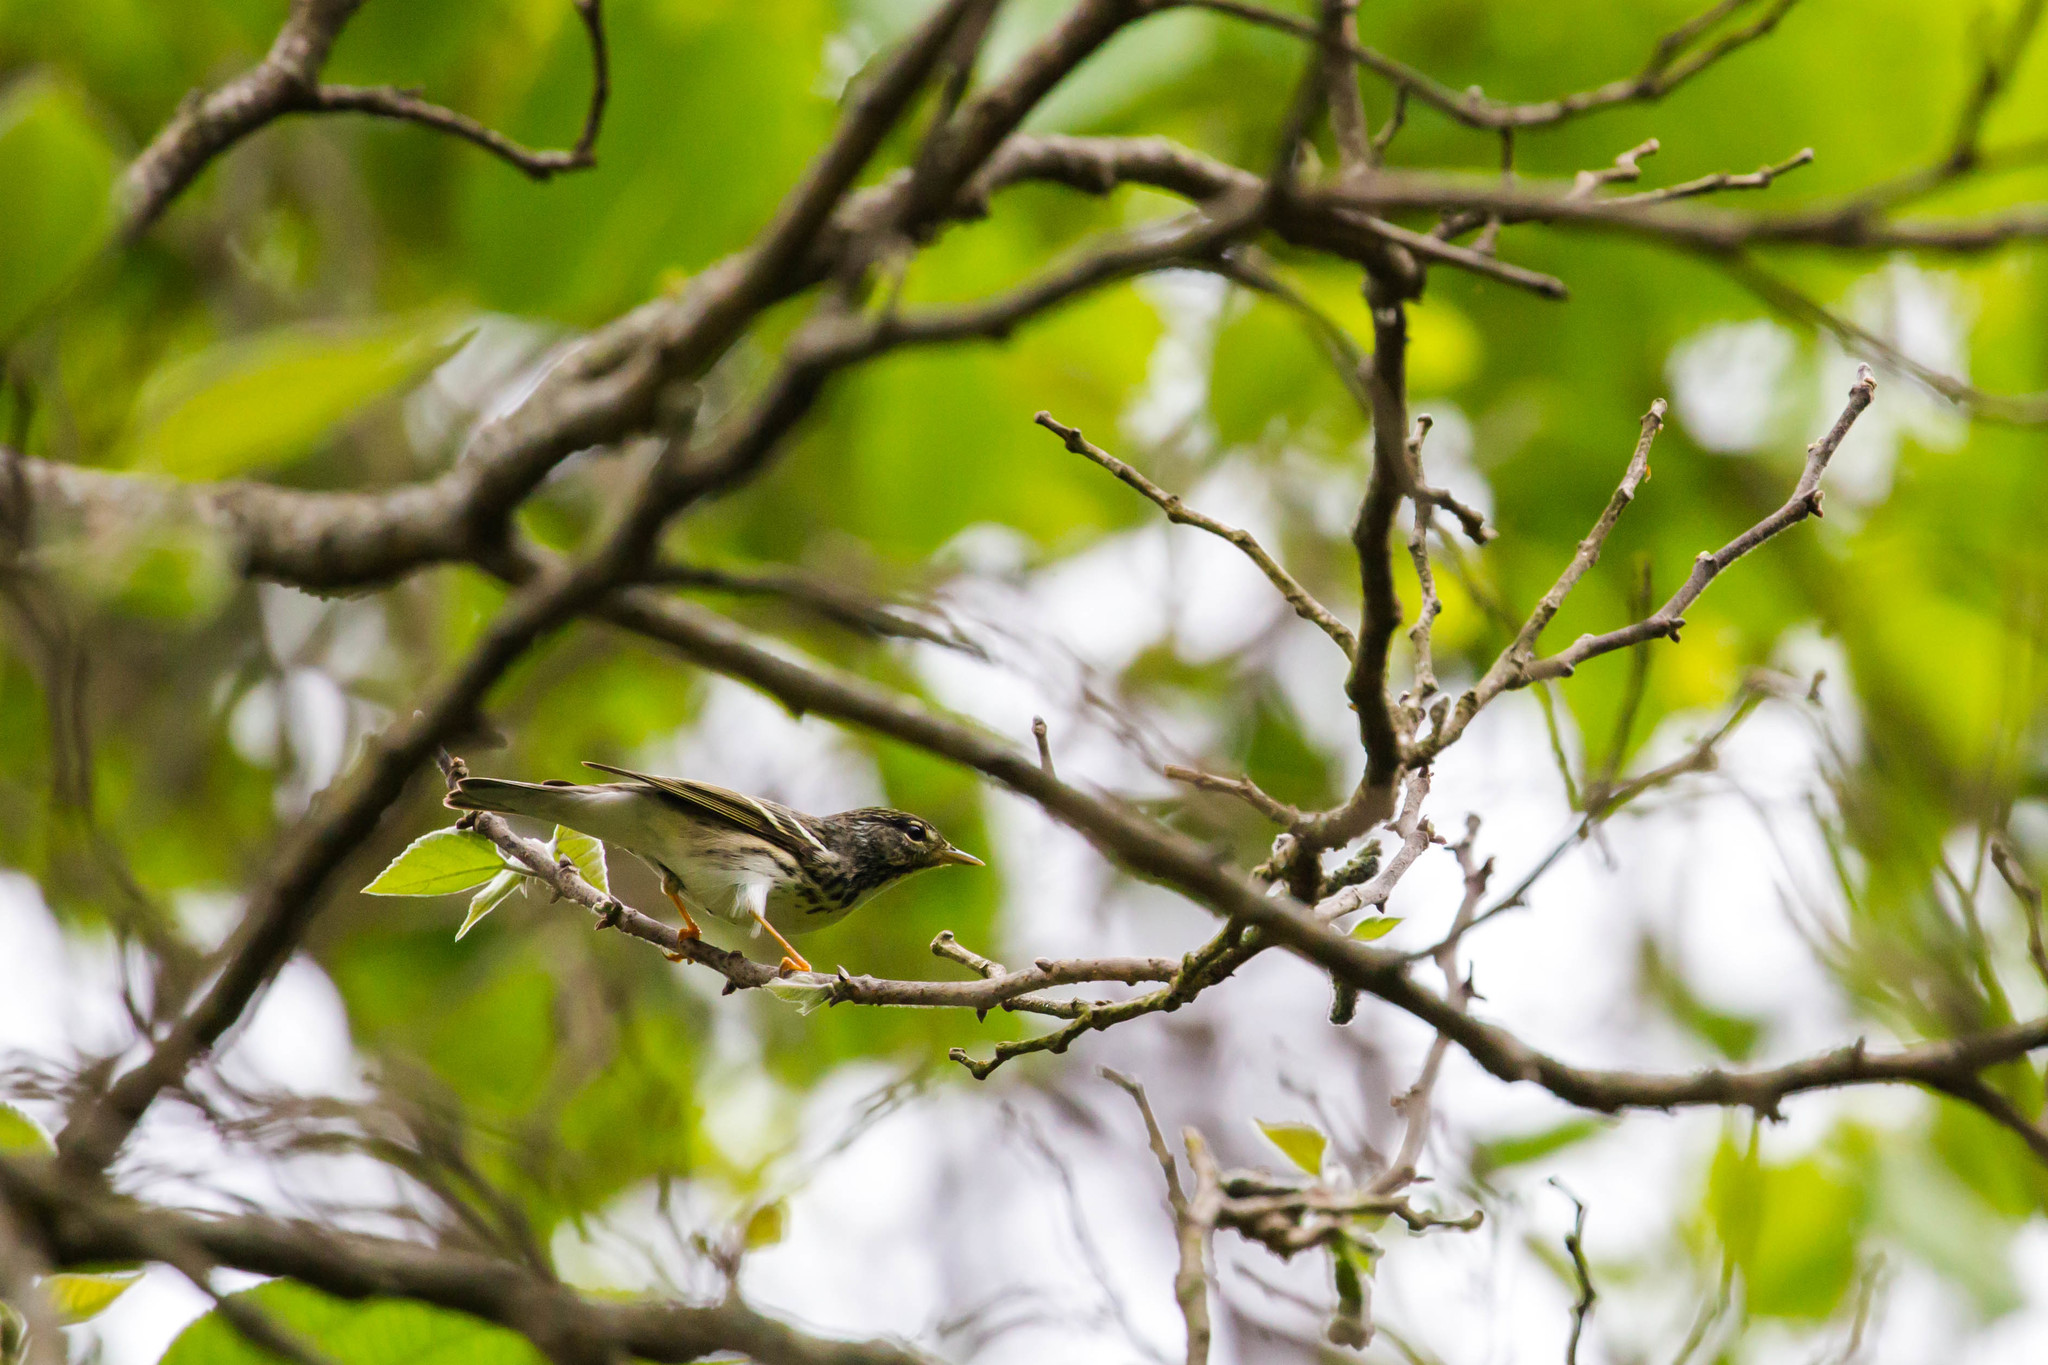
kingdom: Animalia
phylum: Chordata
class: Aves
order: Passeriformes
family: Parulidae
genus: Setophaga
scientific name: Setophaga striata
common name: Blackpoll warbler
